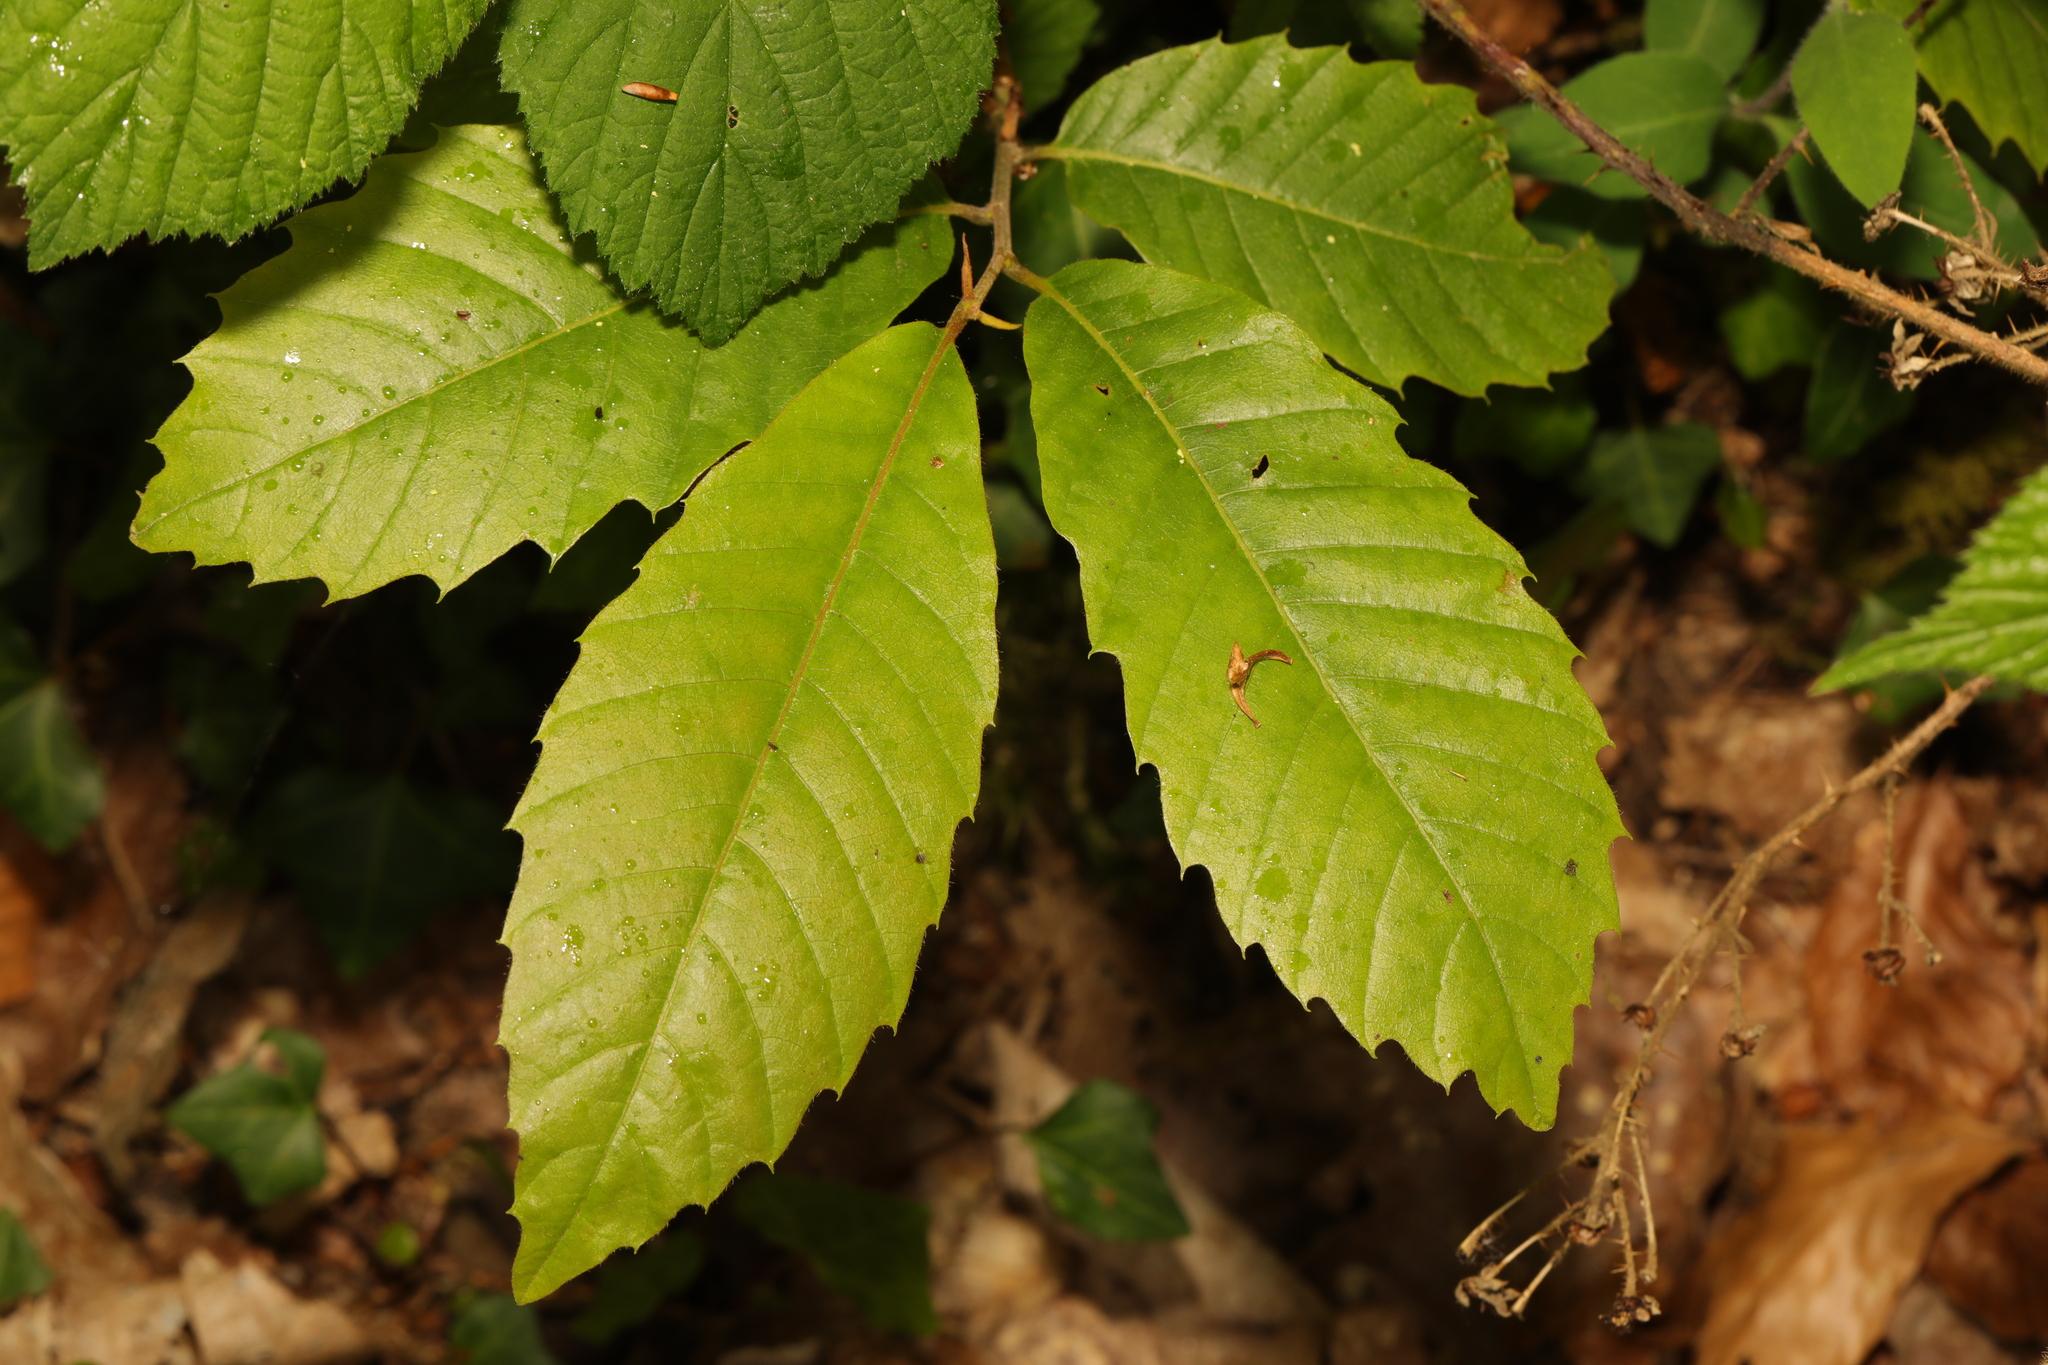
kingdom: Plantae
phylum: Tracheophyta
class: Magnoliopsida
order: Fagales
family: Fagaceae
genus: Castanea
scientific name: Castanea sativa
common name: Sweet chestnut
